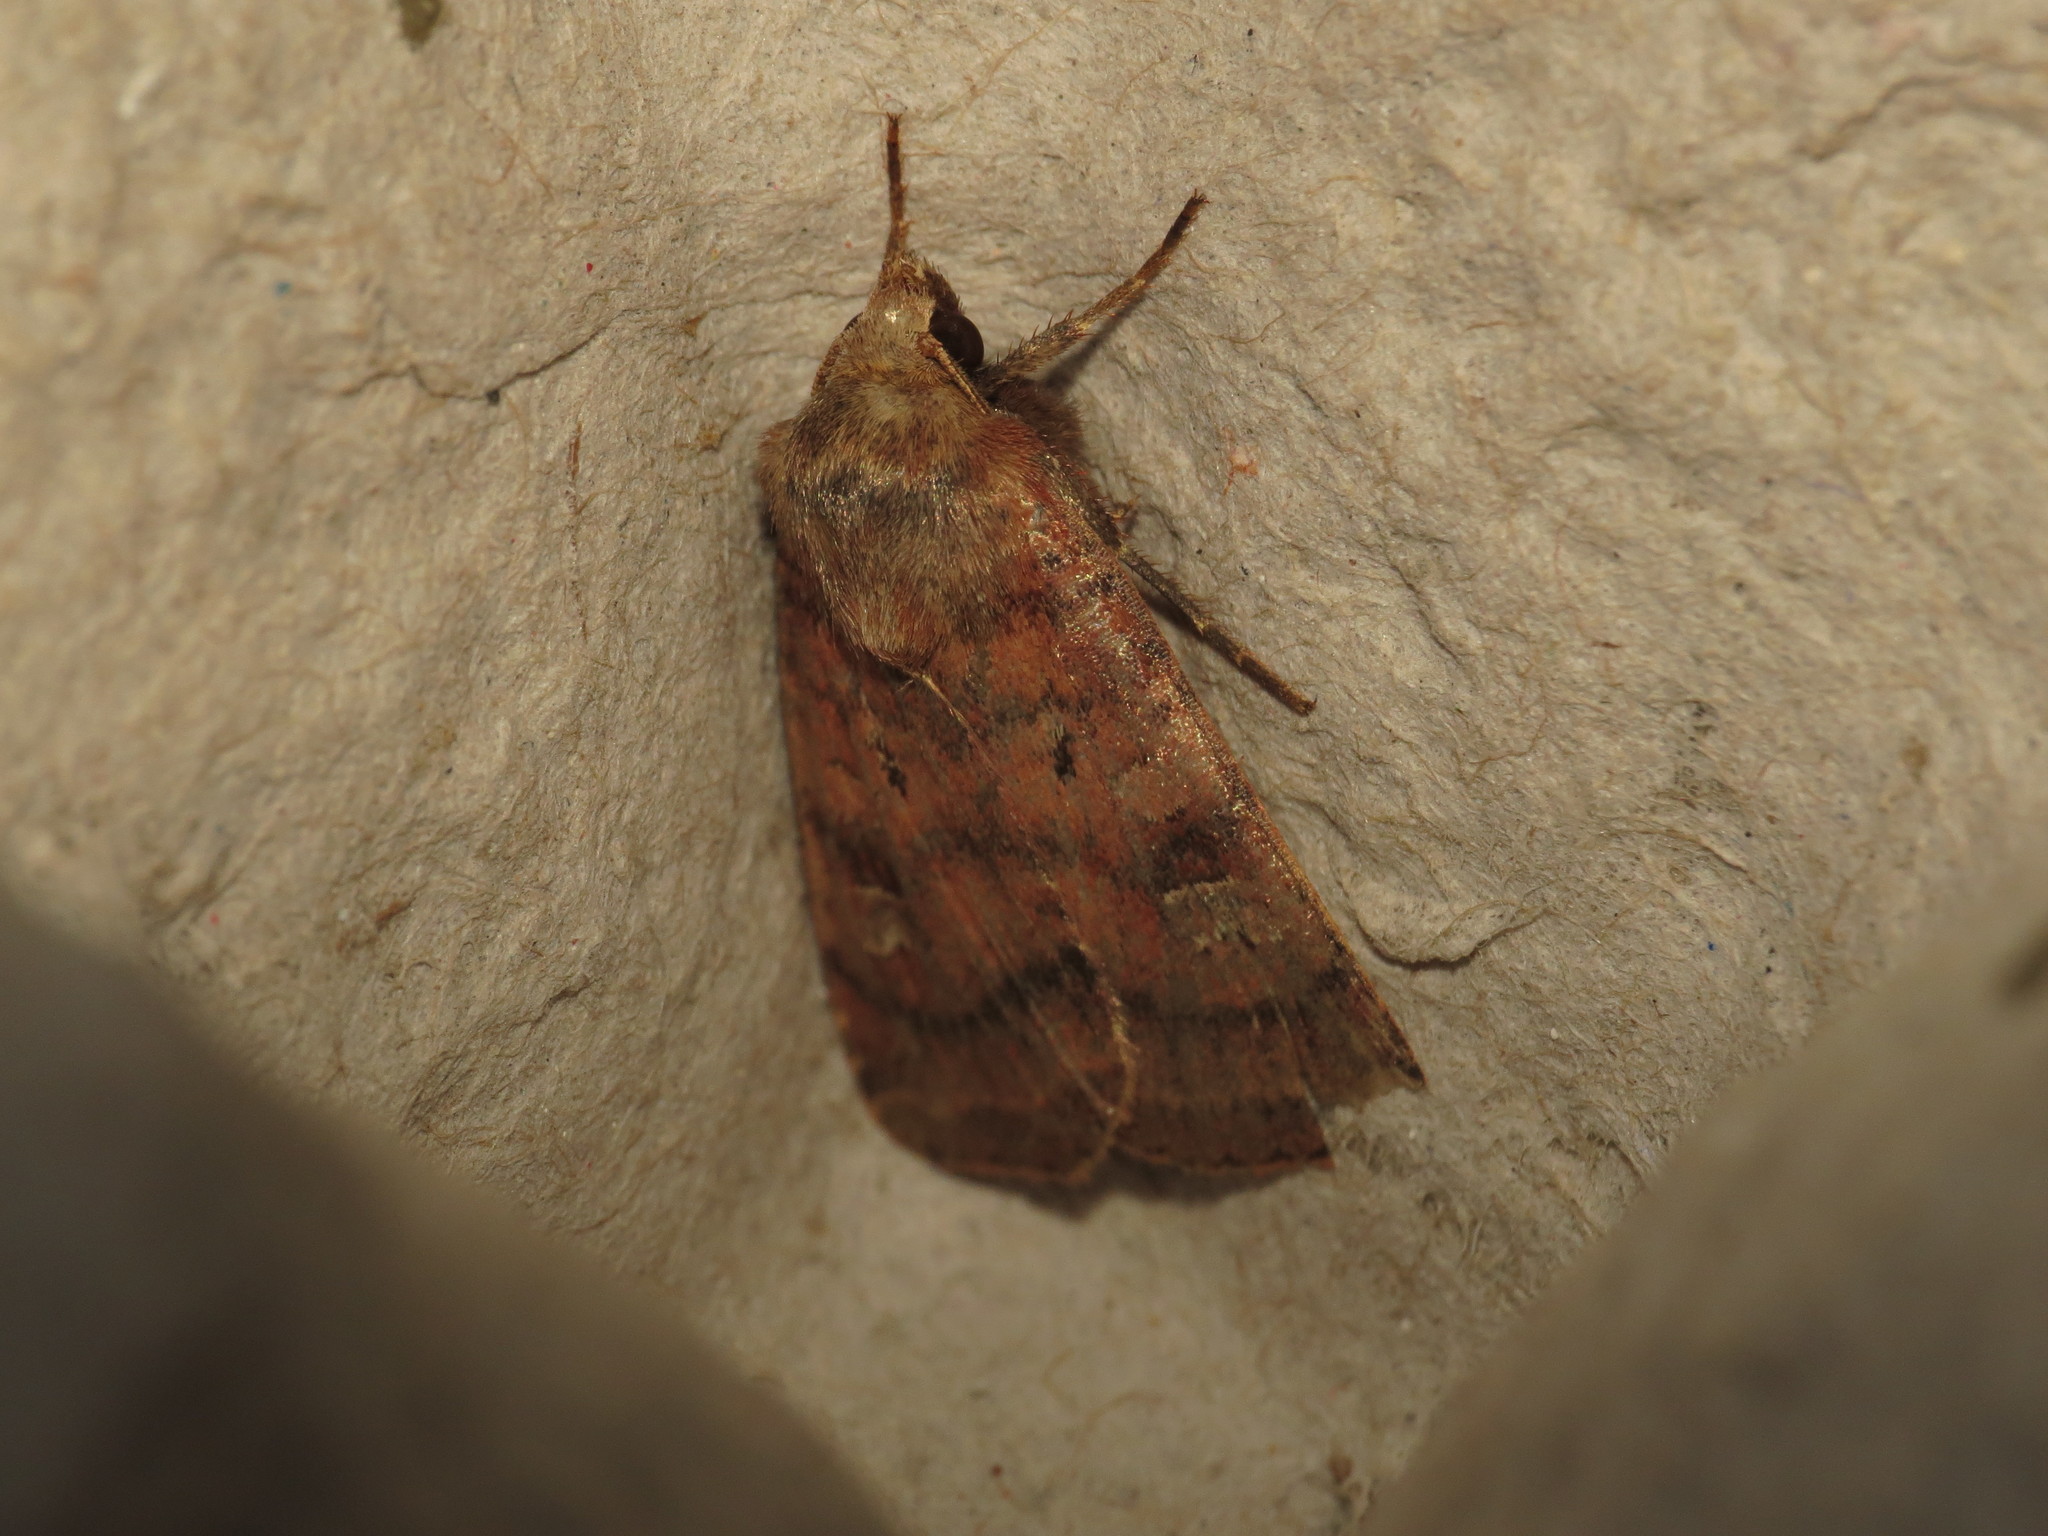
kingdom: Animalia
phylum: Arthropoda
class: Insecta
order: Lepidoptera
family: Noctuidae
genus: Diarsia
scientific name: Diarsia rubi
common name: Small square-spot
